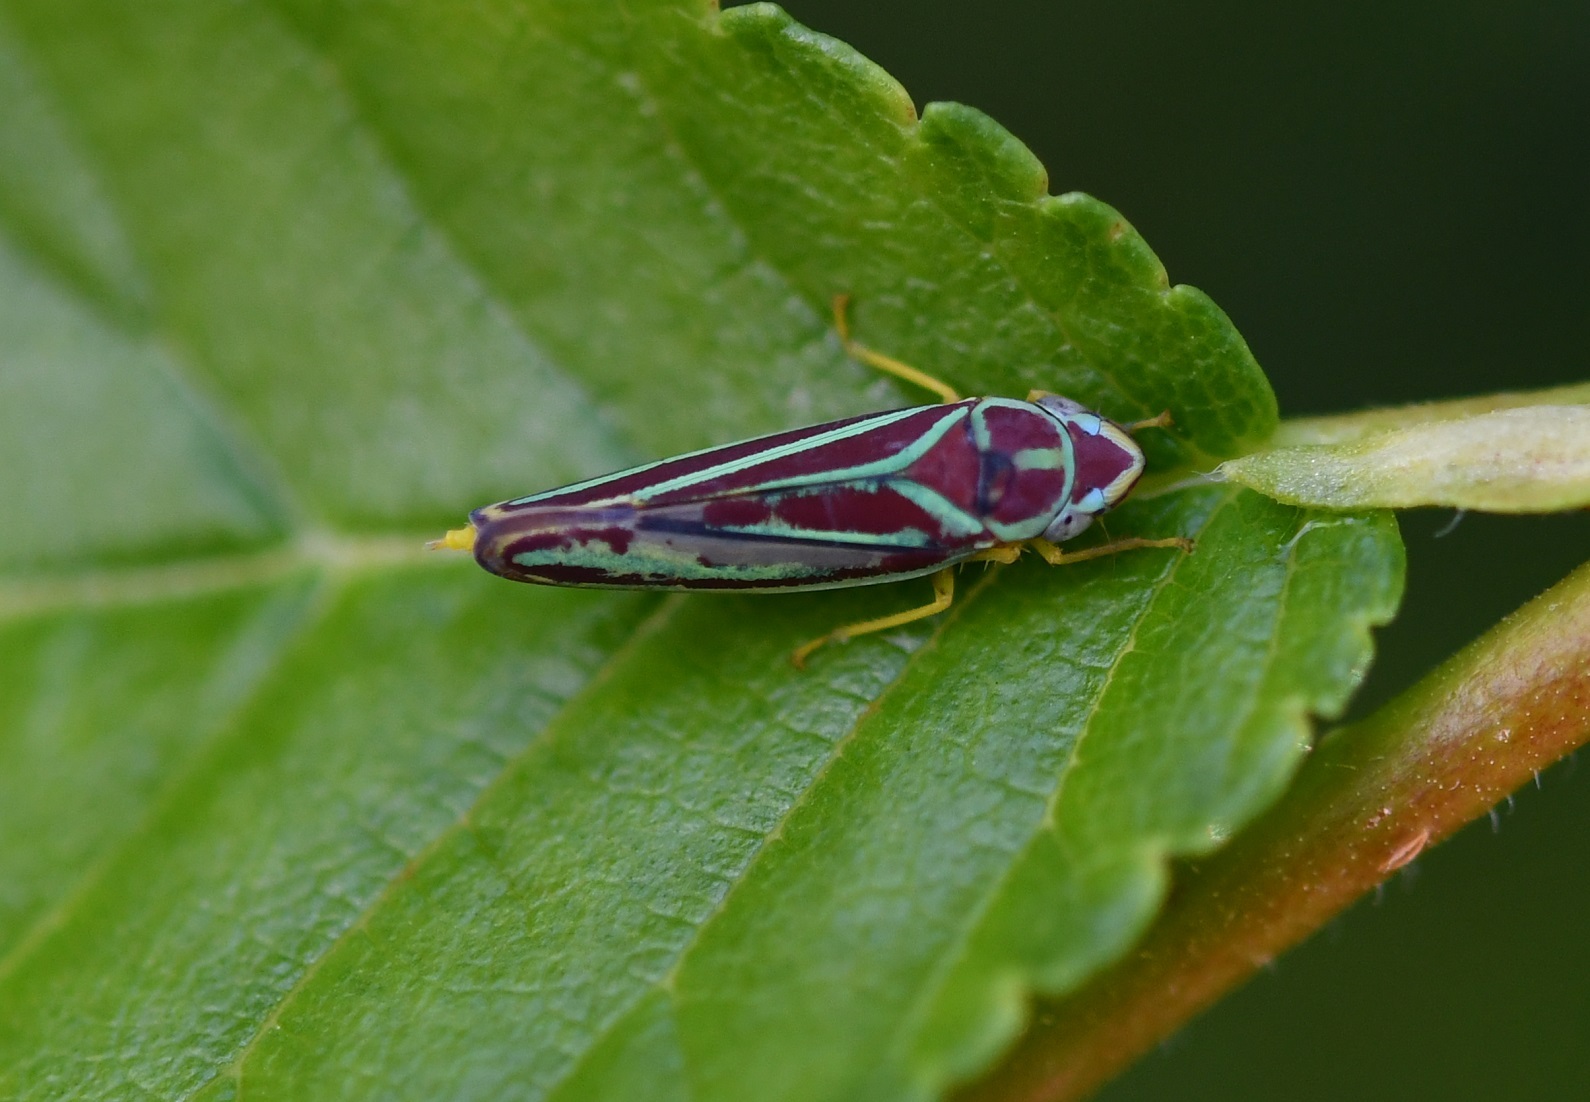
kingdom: Animalia
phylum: Arthropoda
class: Insecta
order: Hemiptera
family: Cicadellidae
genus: Graphocephala
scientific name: Graphocephala
